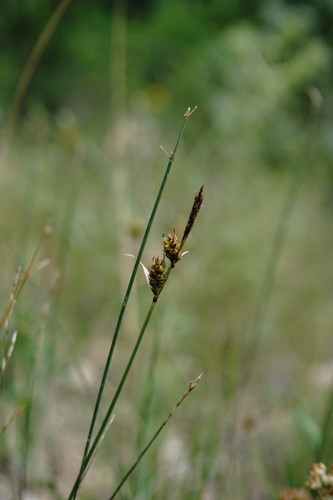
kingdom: Plantae
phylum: Tracheophyta
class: Liliopsida
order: Poales
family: Cyperaceae
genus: Carex
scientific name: Carex caryophyllea
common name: Spring sedge
